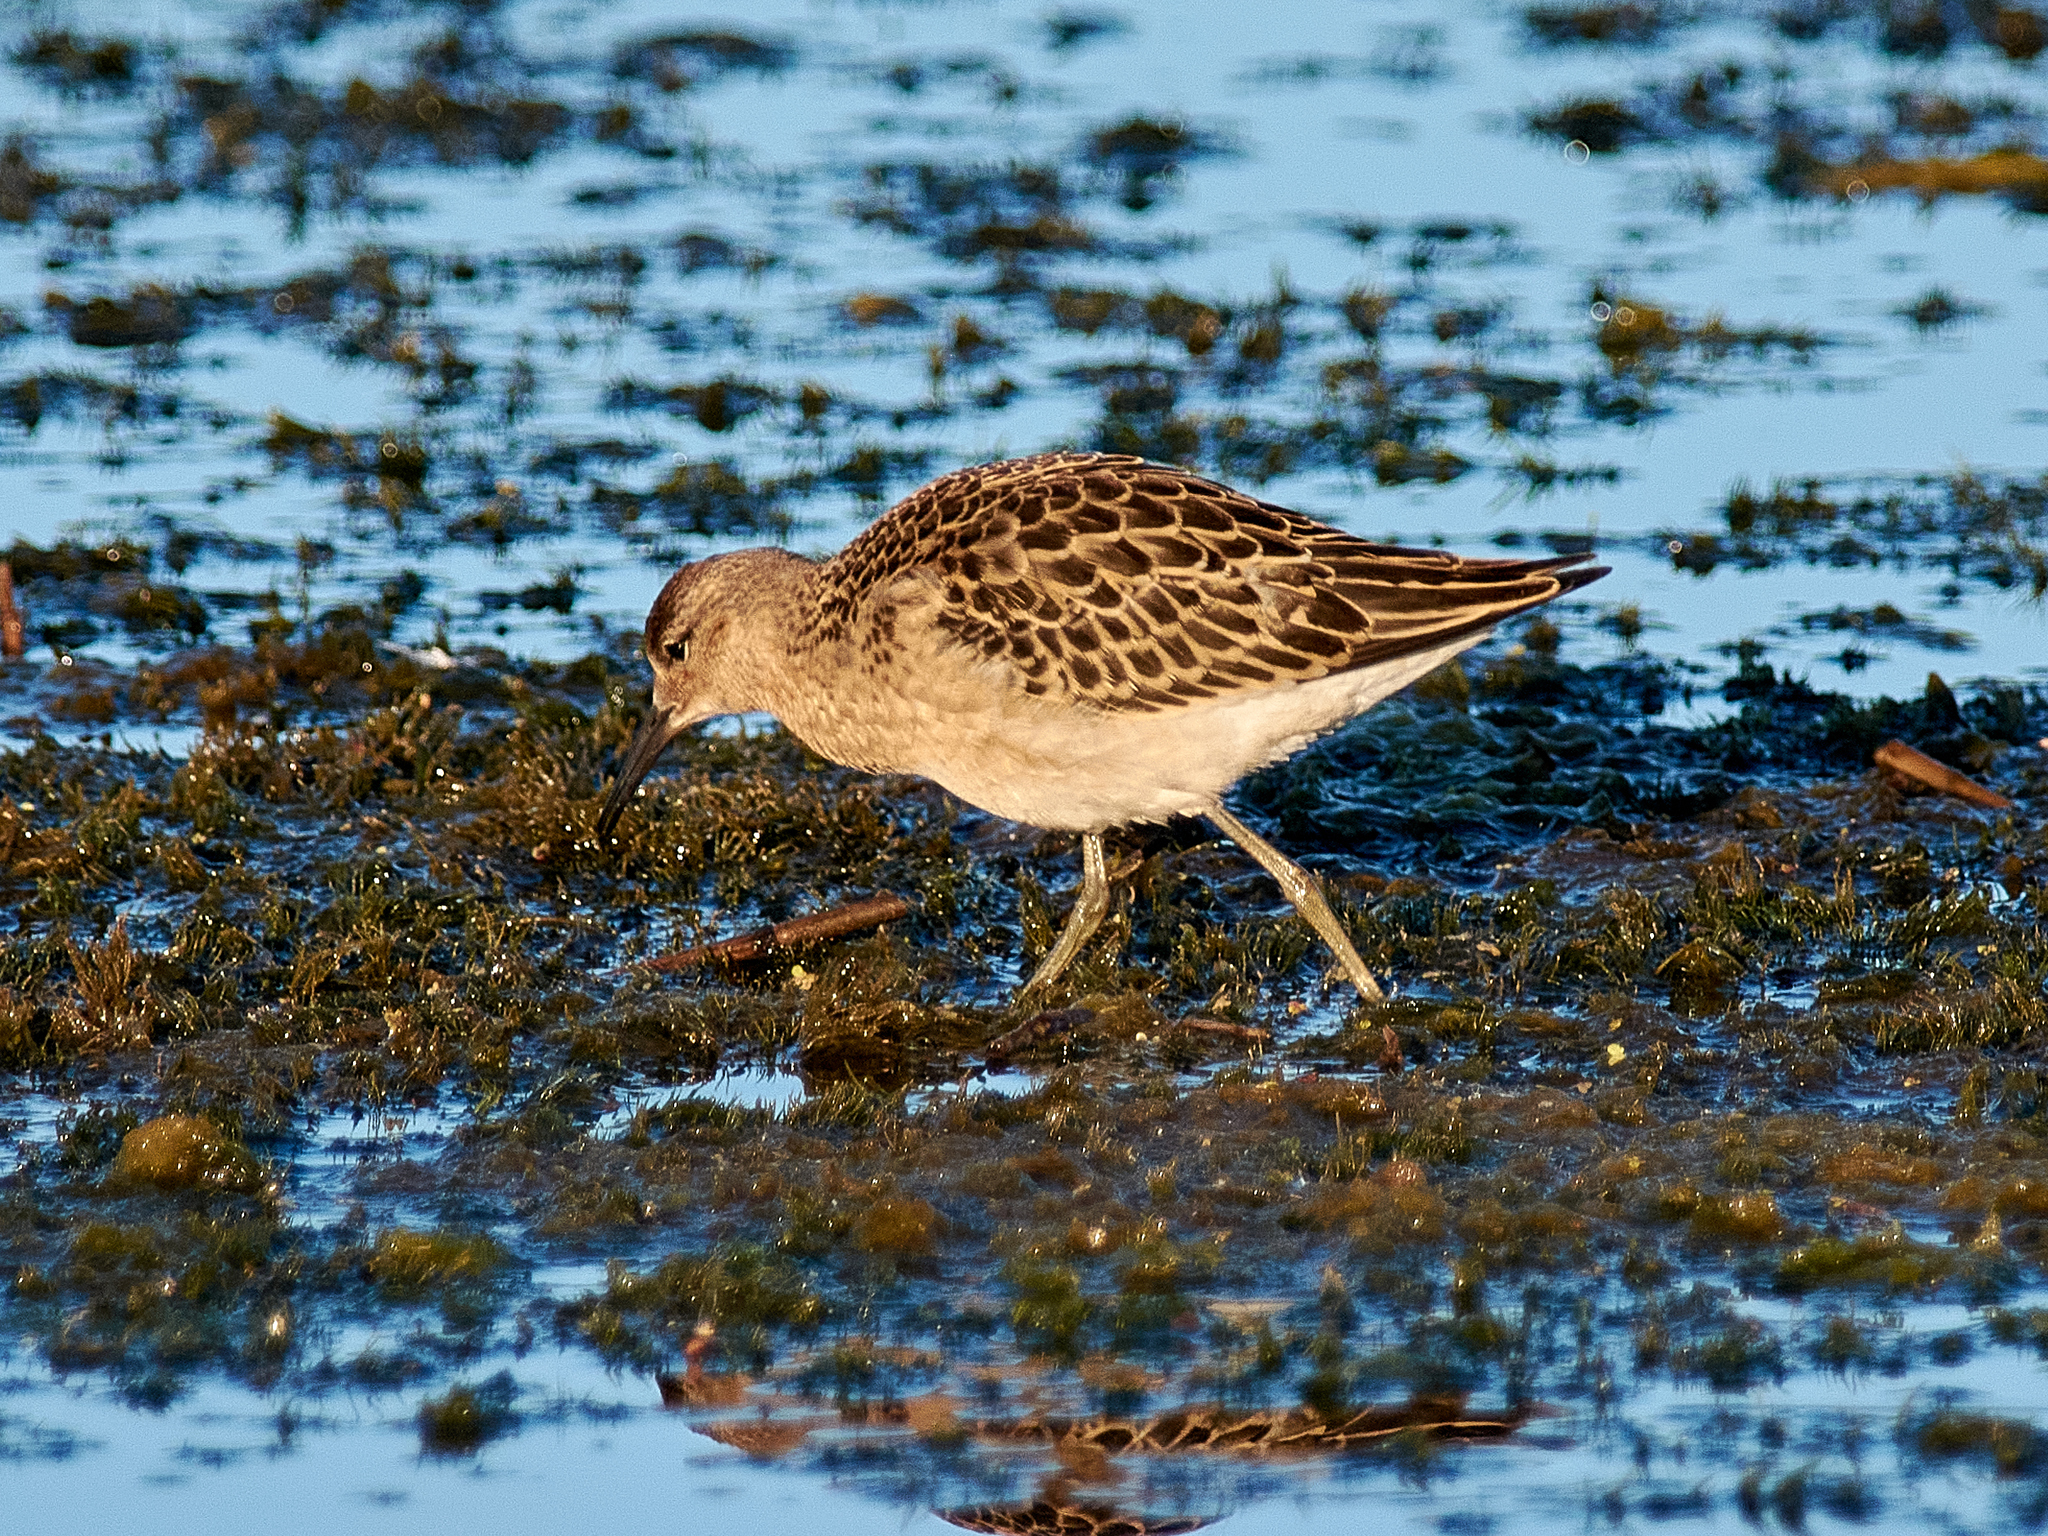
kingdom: Animalia
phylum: Chordata
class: Aves
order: Charadriiformes
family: Scolopacidae
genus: Calidris
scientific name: Calidris pugnax
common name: Ruff
